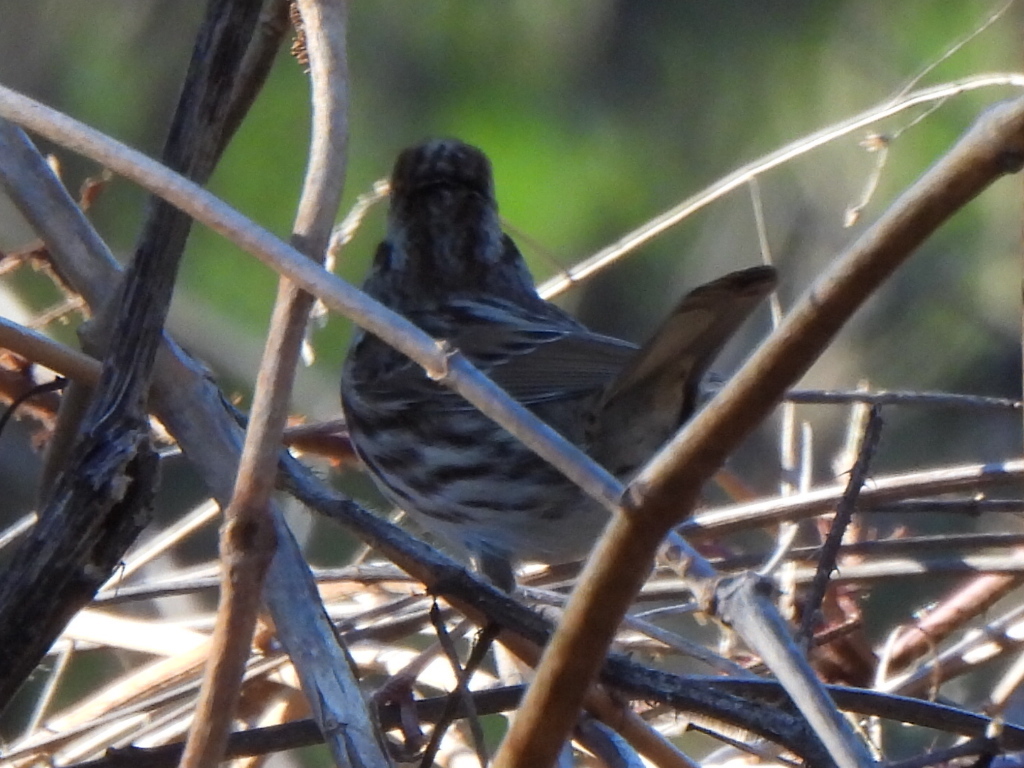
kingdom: Animalia
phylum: Chordata
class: Aves
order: Passeriformes
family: Passerellidae
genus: Melospiza
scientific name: Melospiza melodia
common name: Song sparrow
